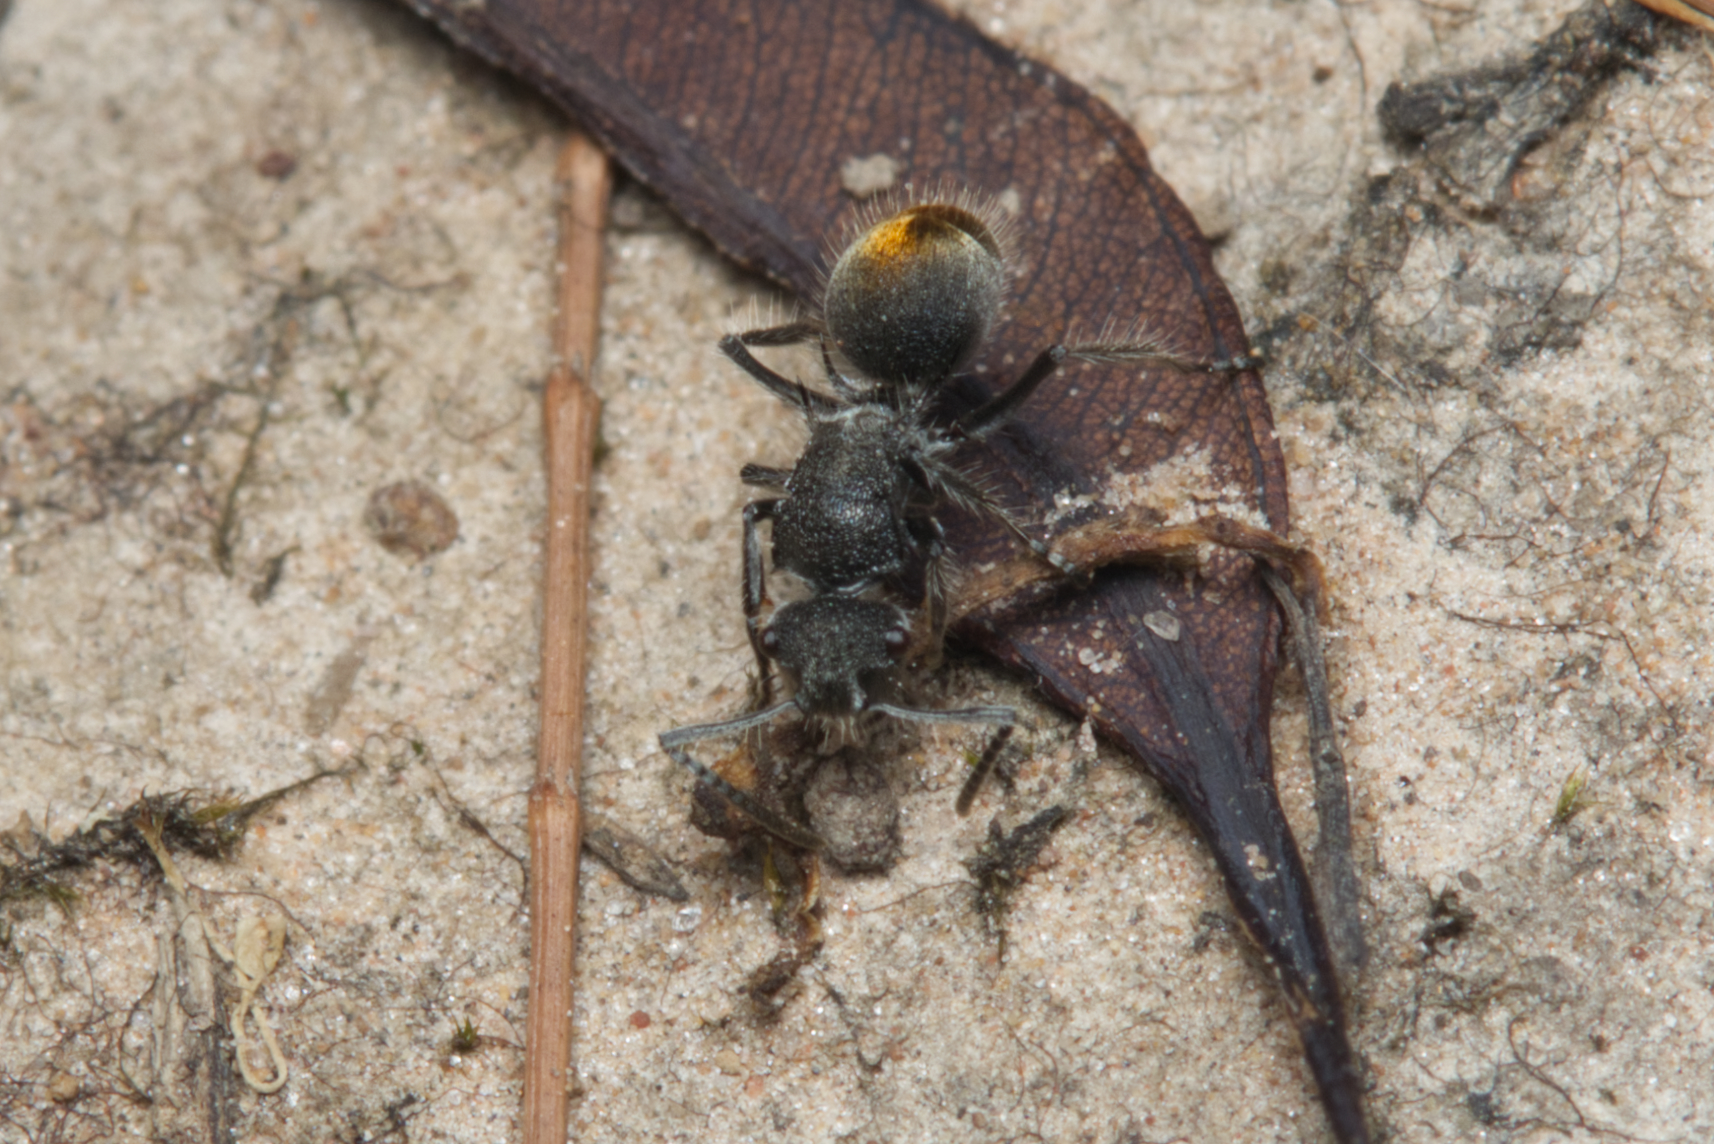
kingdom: Animalia
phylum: Arthropoda
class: Insecta
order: Hymenoptera
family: Formicidae
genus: Polyrhachis
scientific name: Polyrhachis vermiculosa
